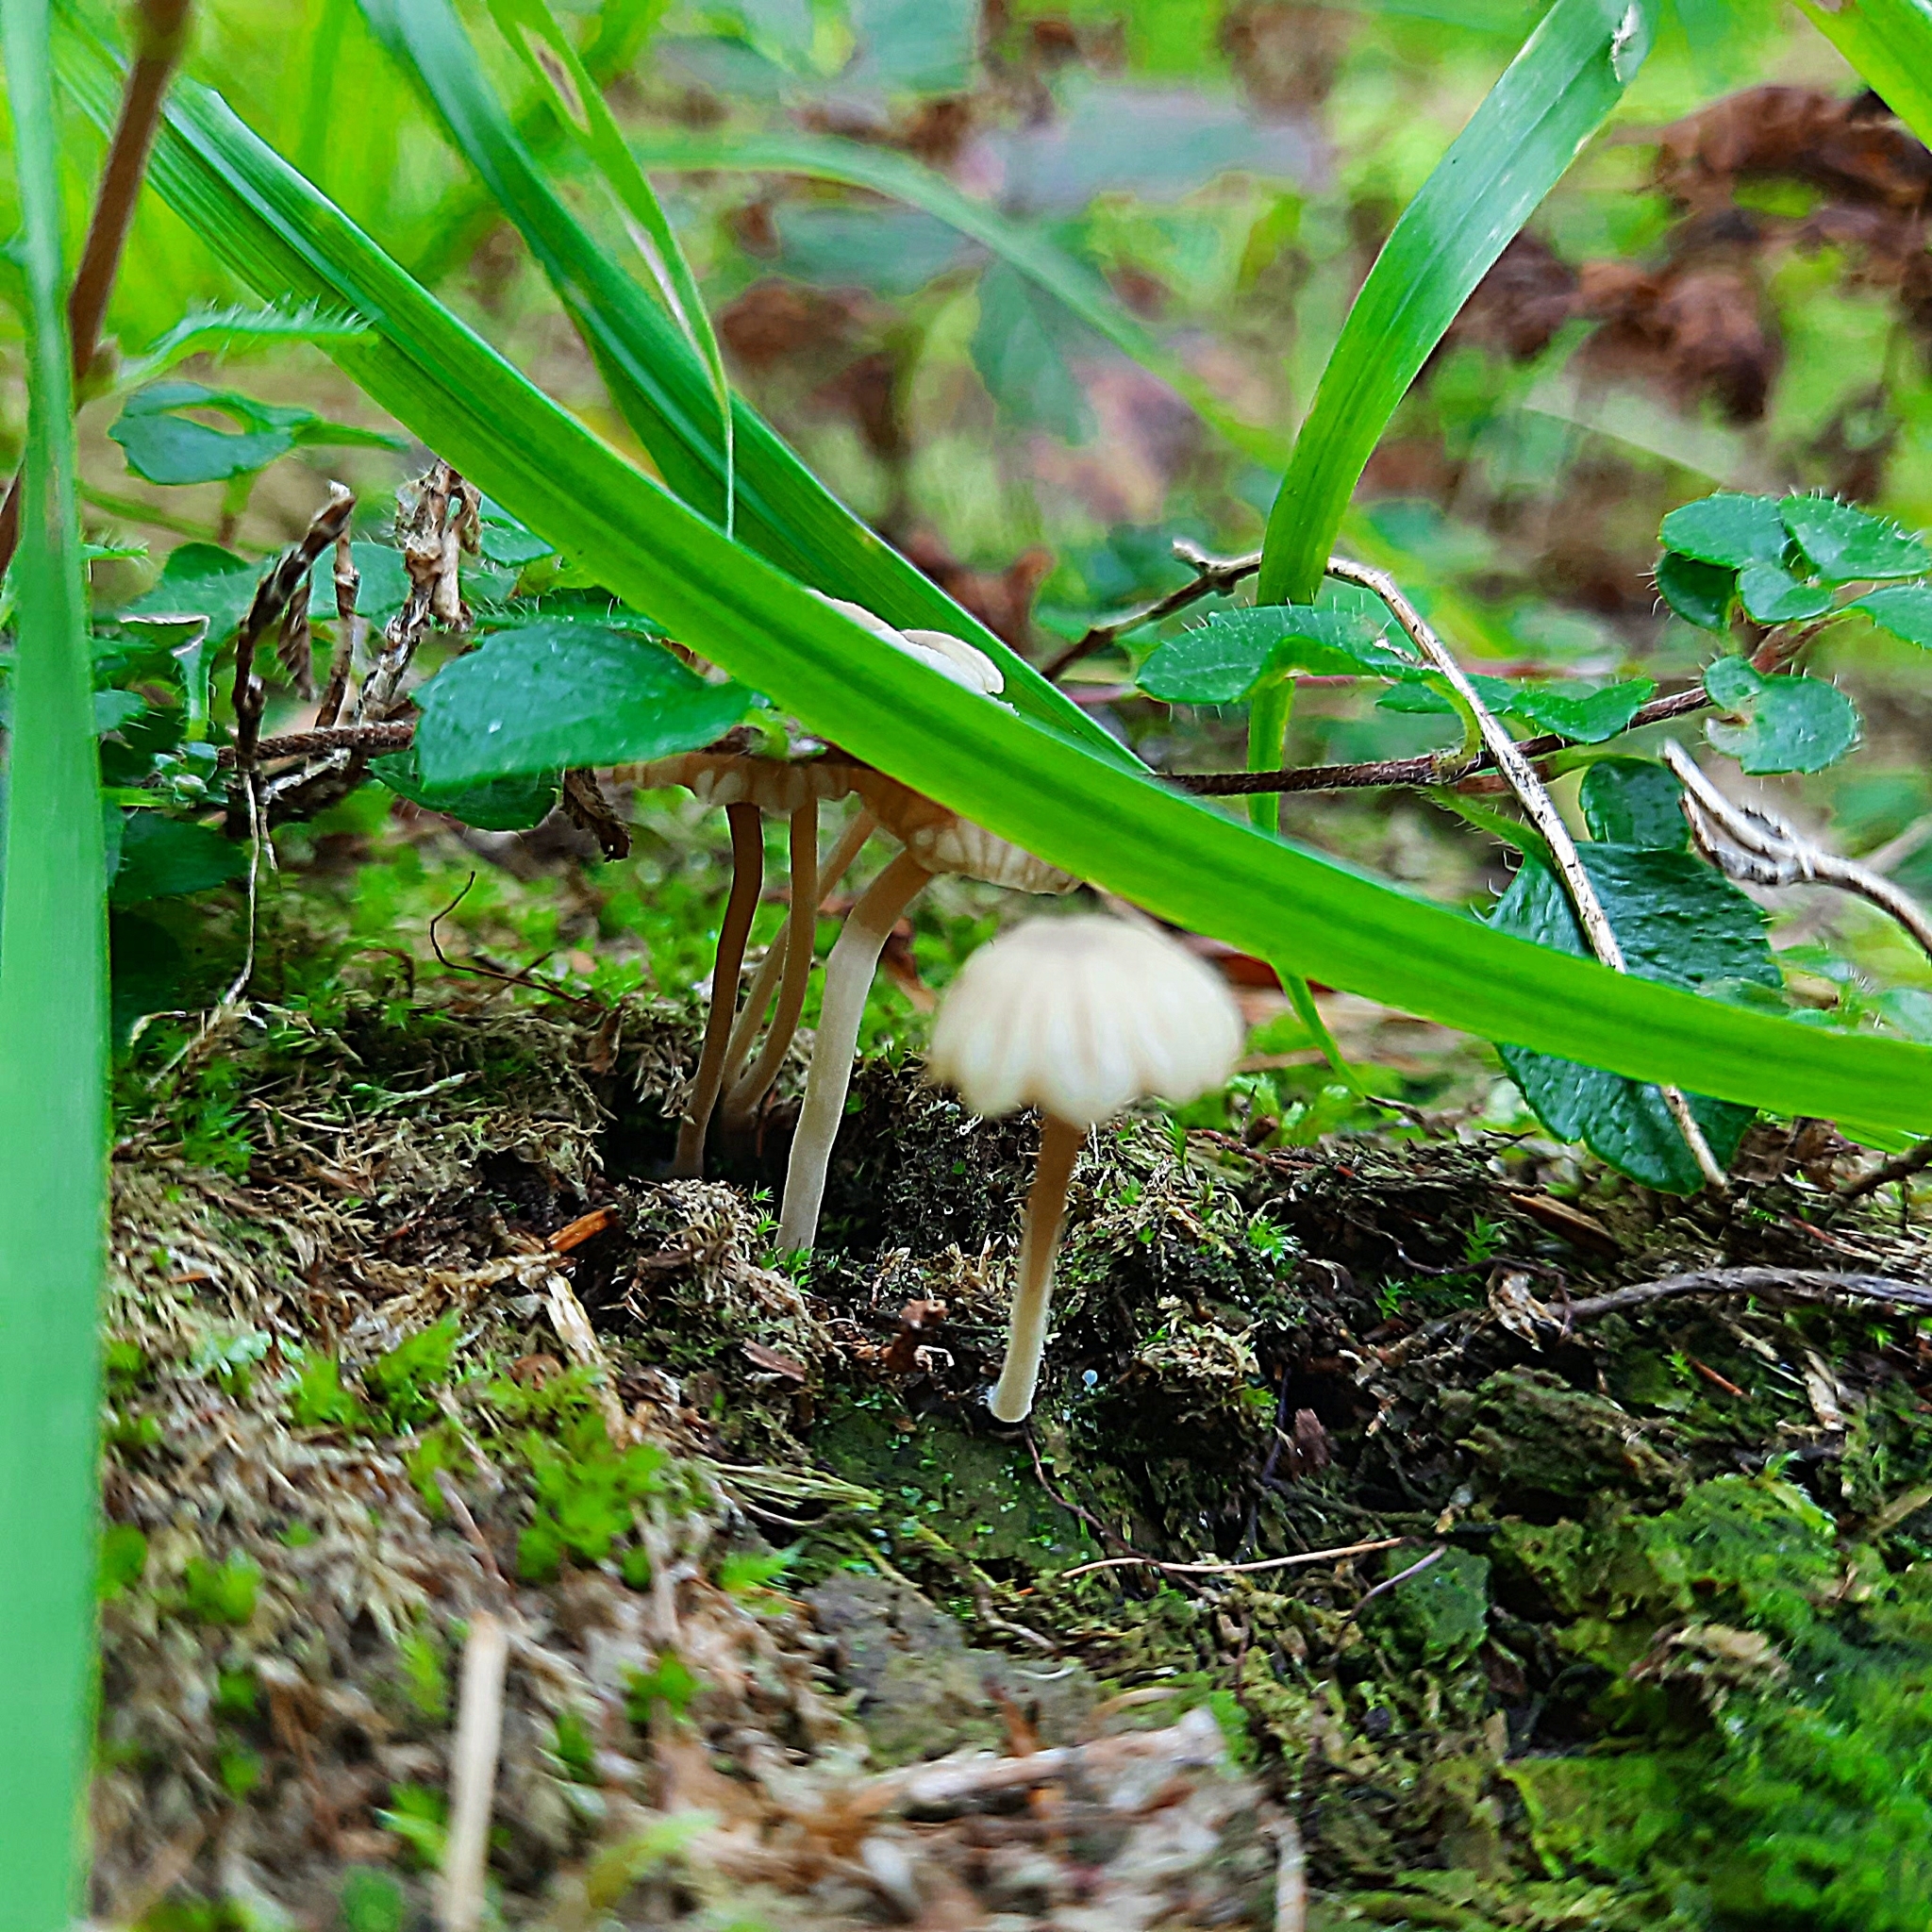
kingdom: Fungi
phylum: Basidiomycota
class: Agaricomycetes
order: Agaricales
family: Hygrophoraceae
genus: Lichenomphalia
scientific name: Lichenomphalia
